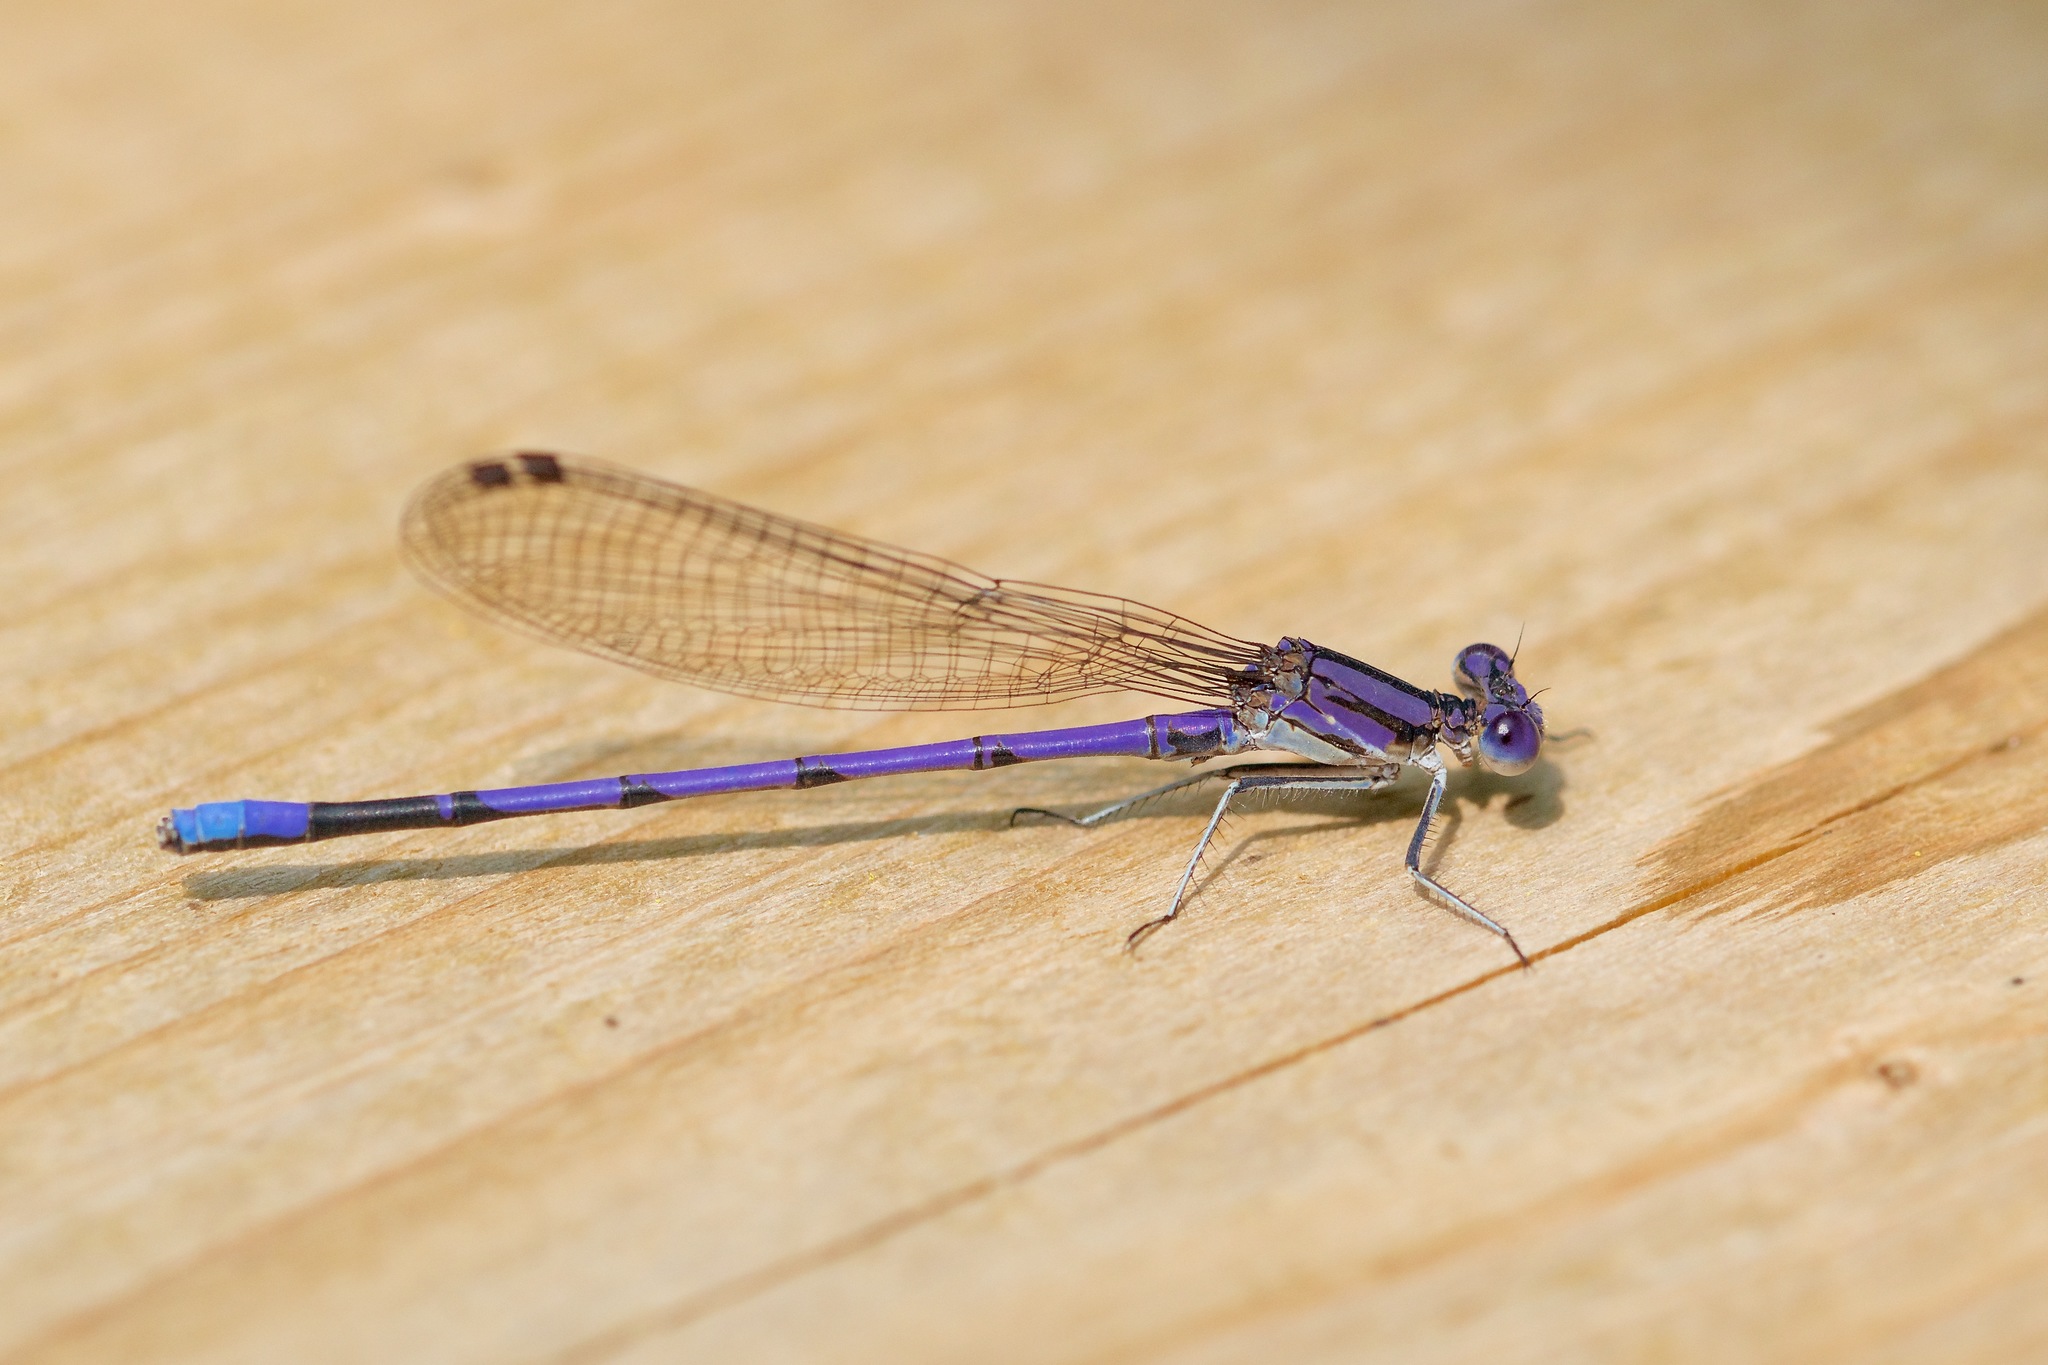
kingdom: Animalia
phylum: Arthropoda
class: Insecta
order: Odonata
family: Coenagrionidae
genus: Argia
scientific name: Argia fumipennis
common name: Variable dancer
